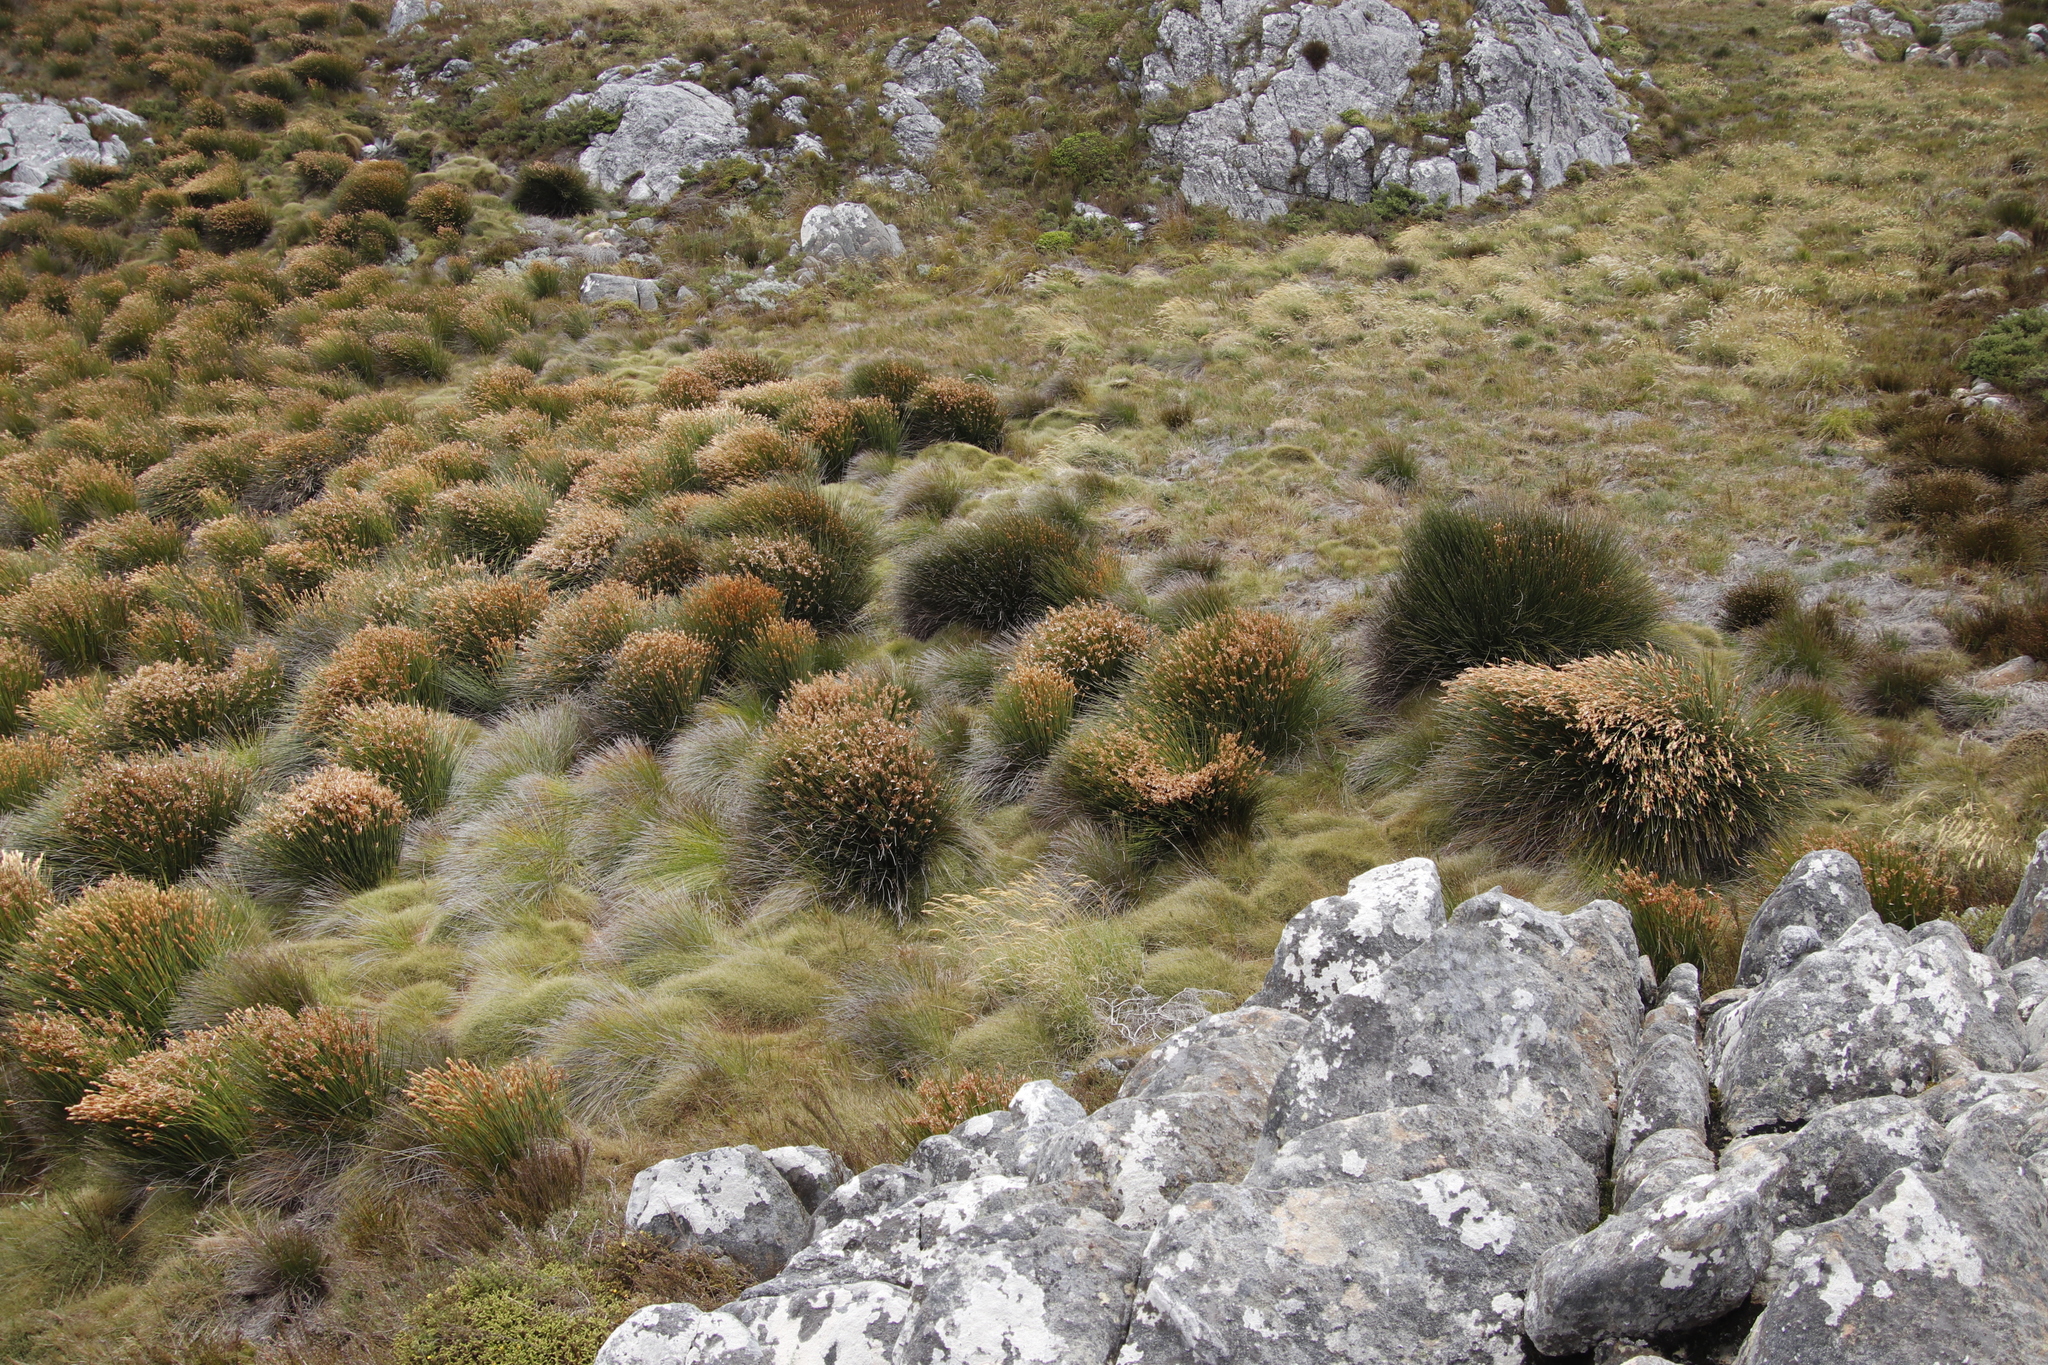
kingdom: Plantae
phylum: Tracheophyta
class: Liliopsida
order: Poales
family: Restionaceae
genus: Elegia
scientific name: Elegia mucronata
